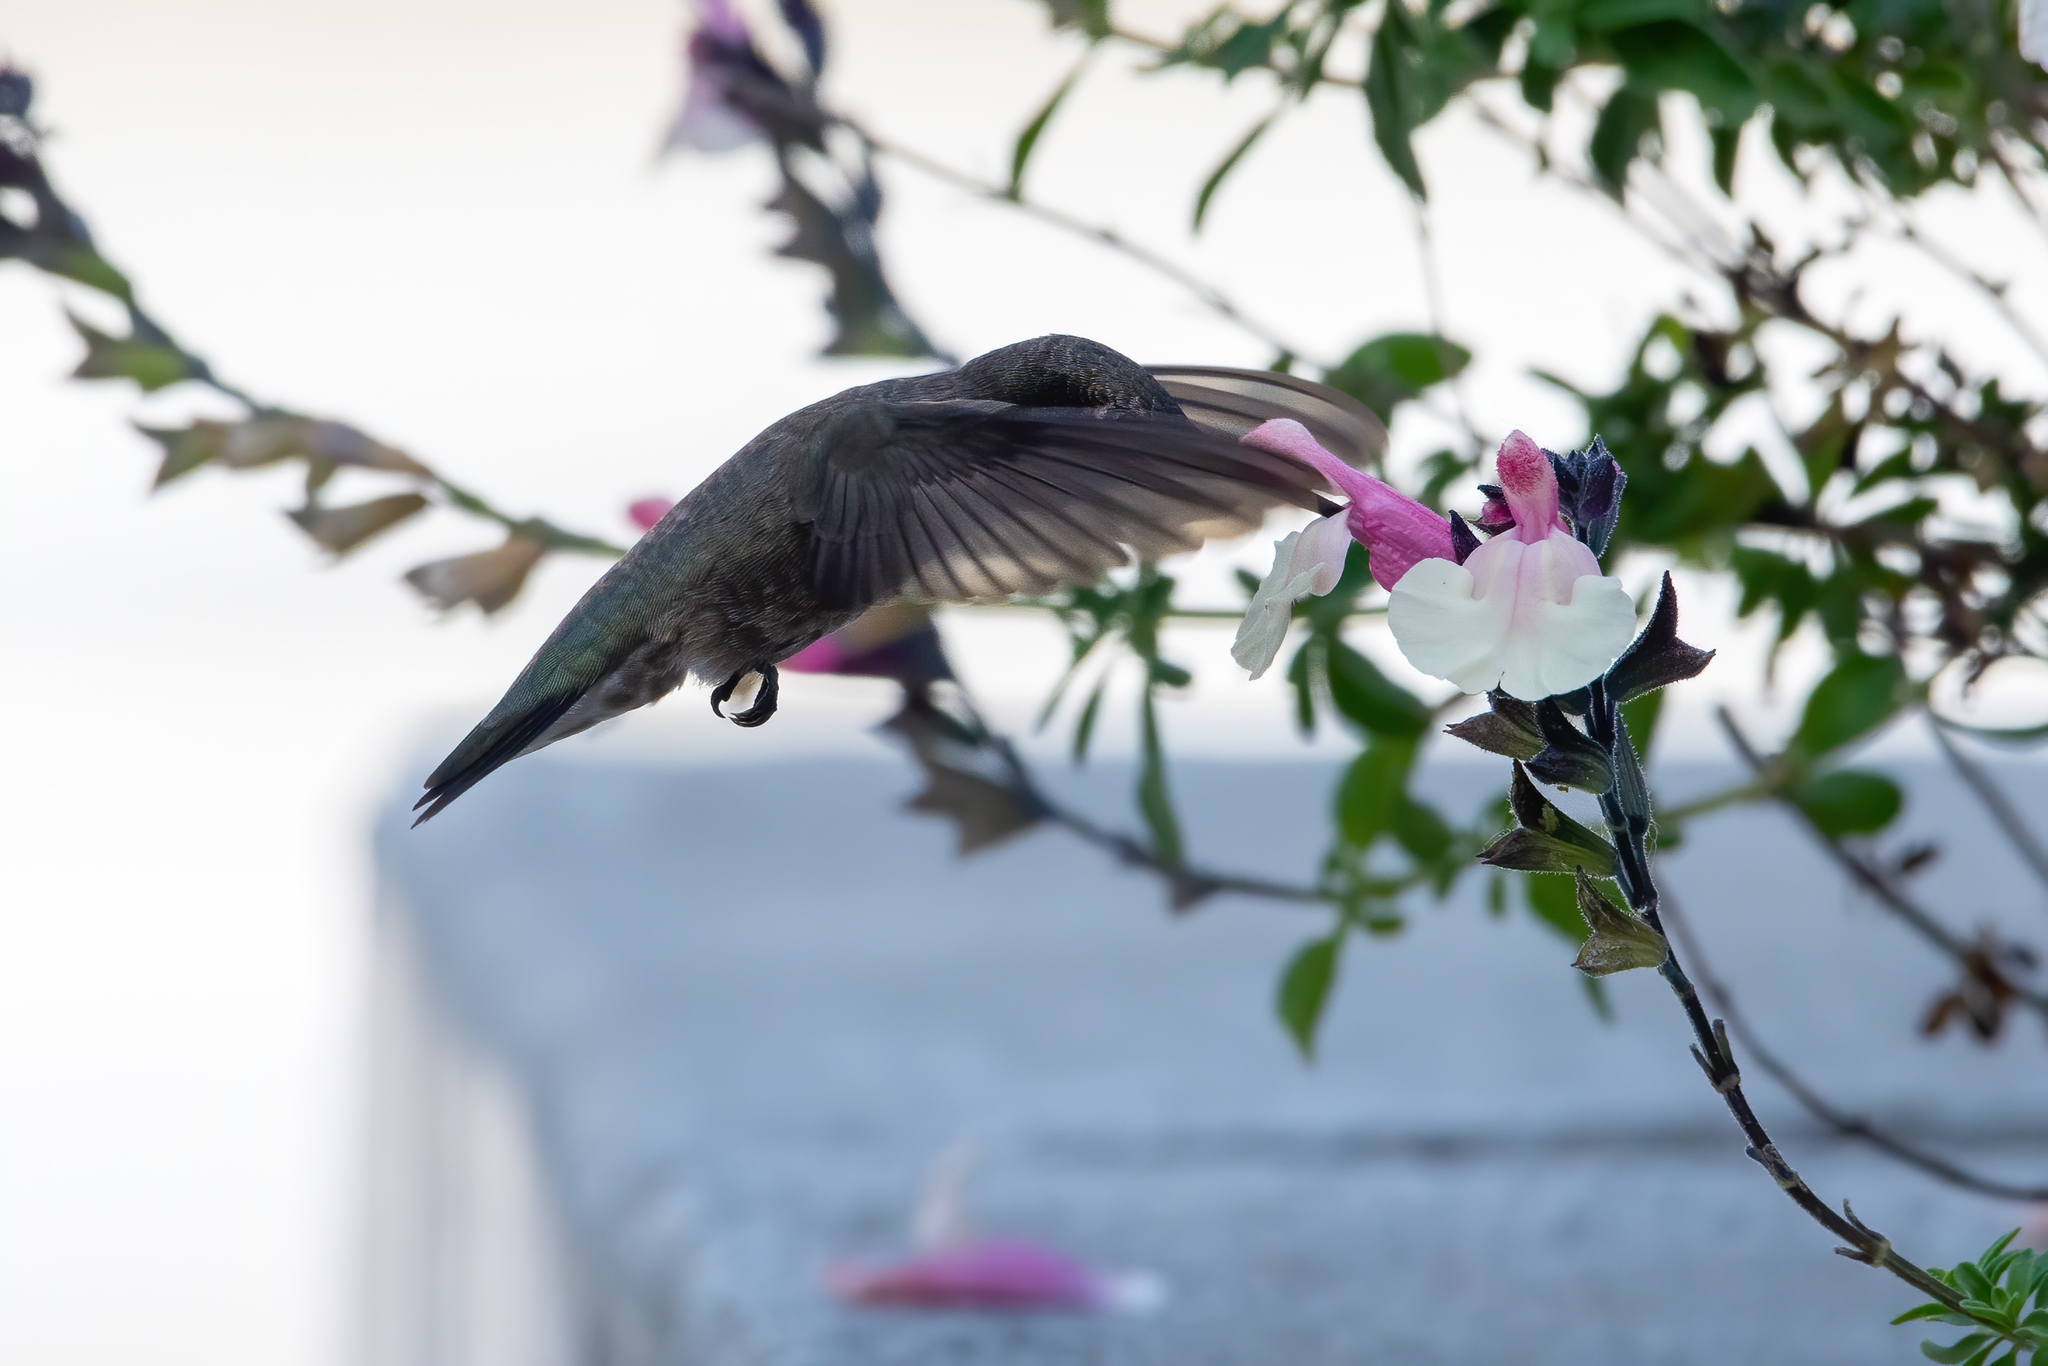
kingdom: Animalia
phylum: Chordata
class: Aves
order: Apodiformes
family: Trochilidae
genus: Archilochus
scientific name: Archilochus alexandri
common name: Black-chinned hummingbird
